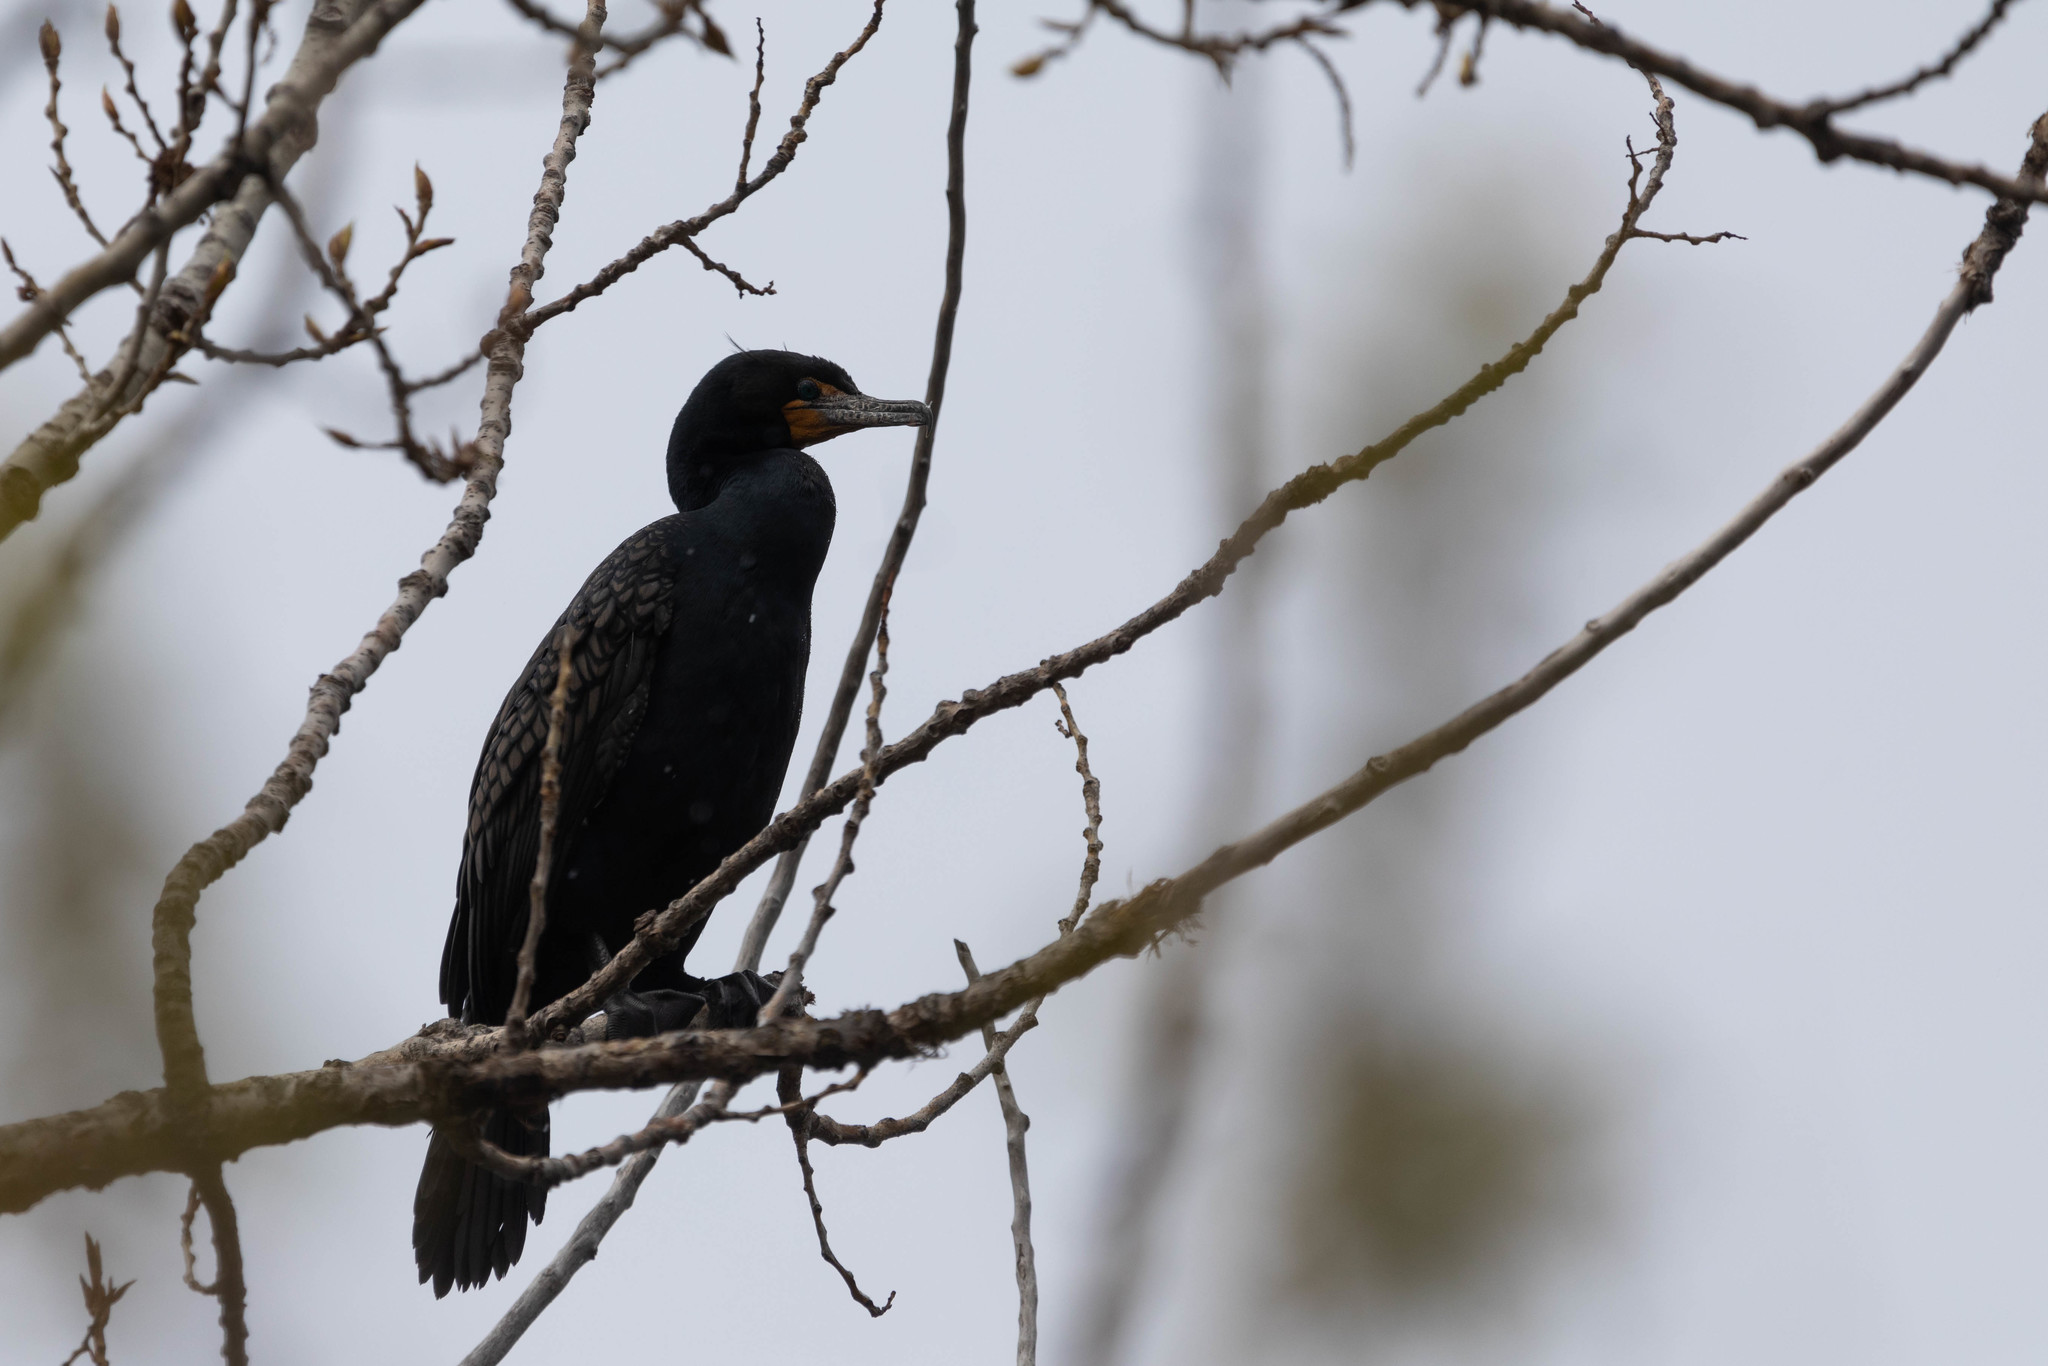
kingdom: Animalia
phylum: Chordata
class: Aves
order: Suliformes
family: Phalacrocoracidae
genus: Phalacrocorax
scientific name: Phalacrocorax auritus
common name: Double-crested cormorant
